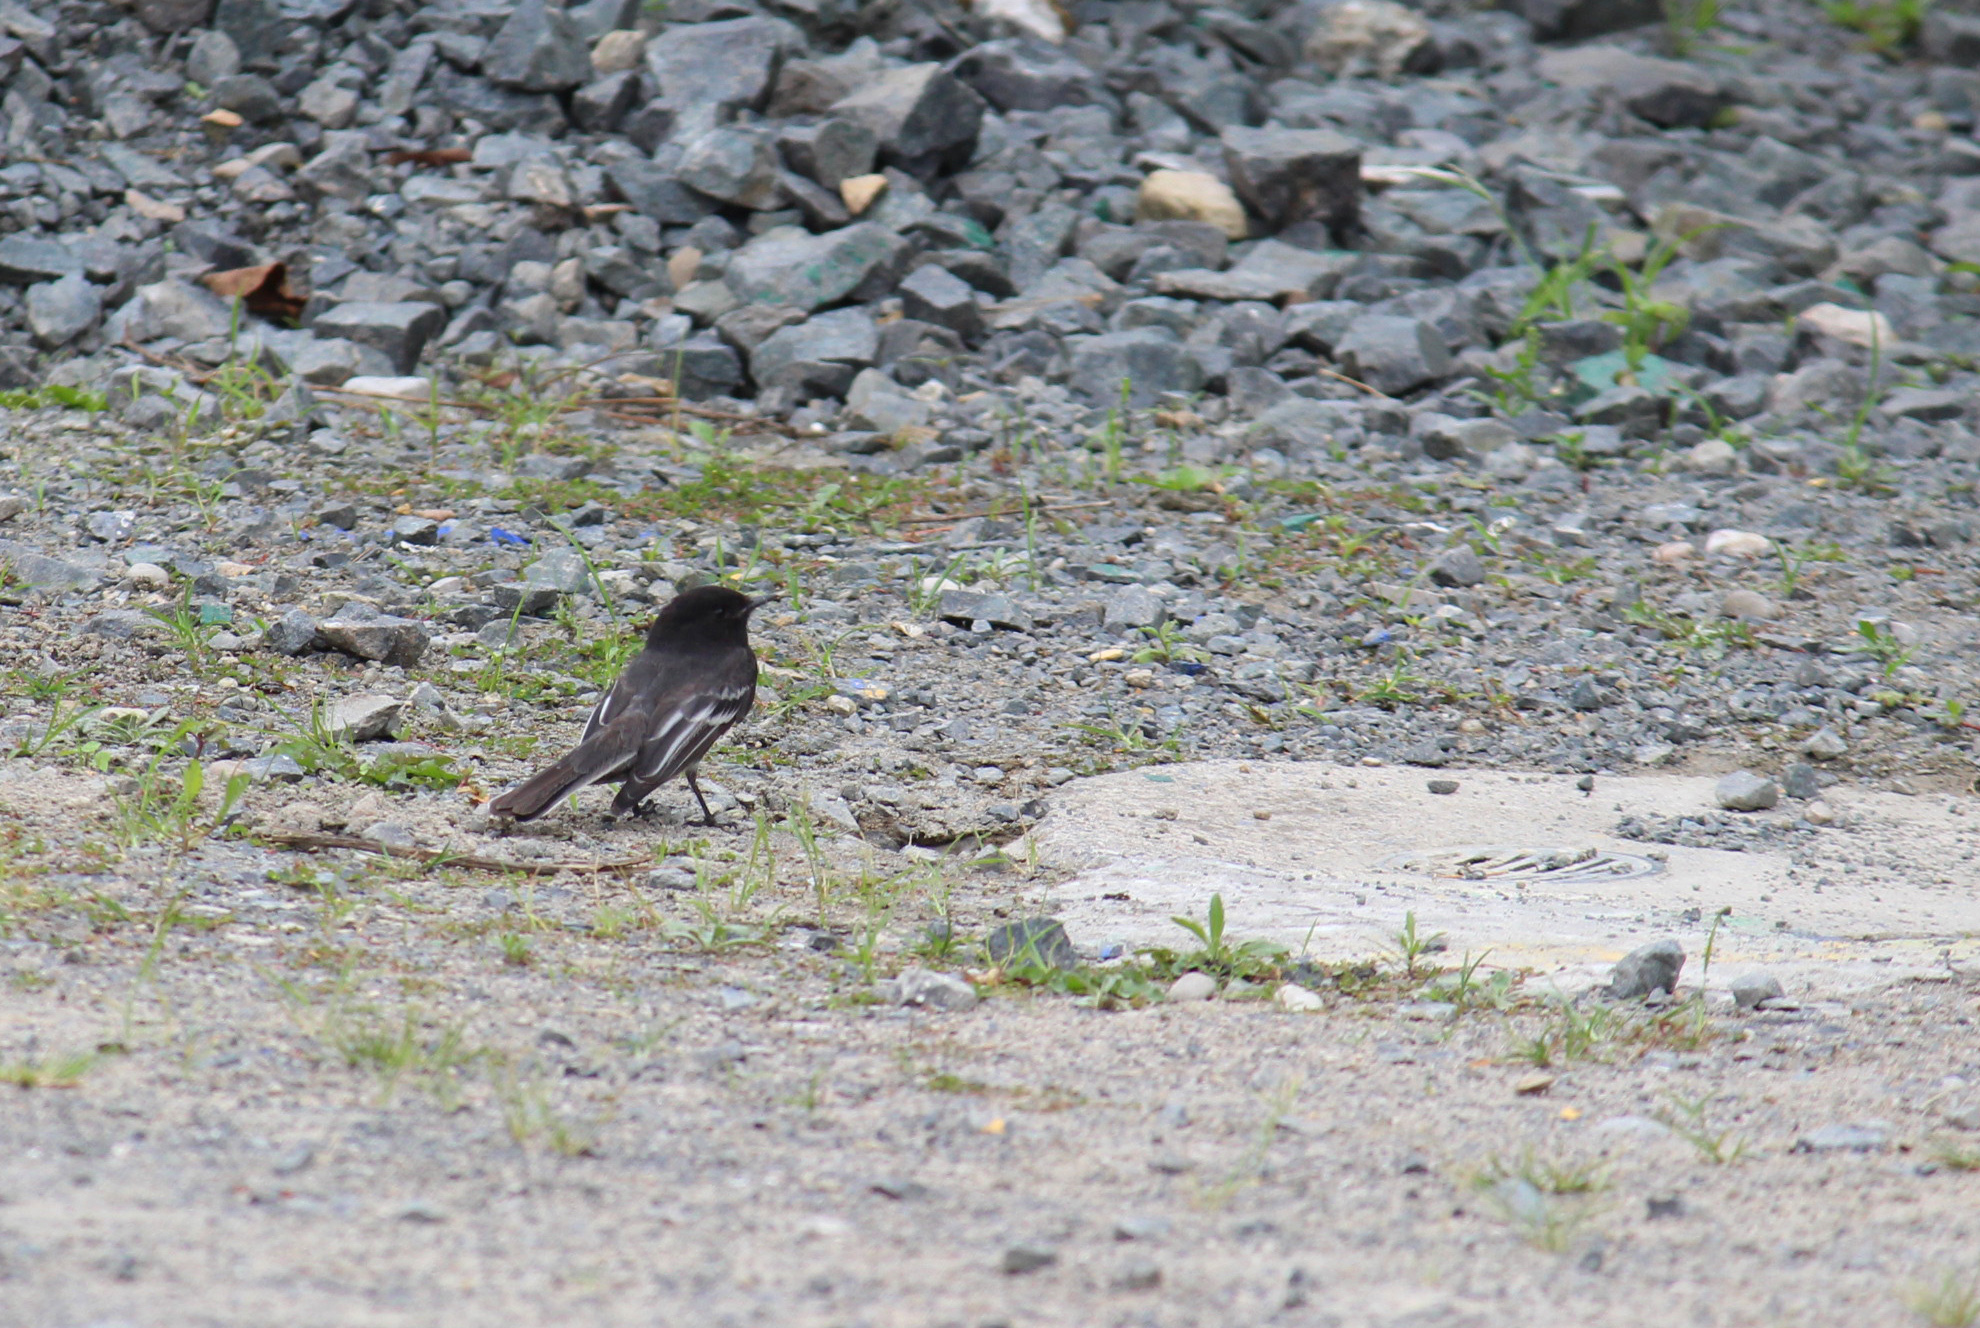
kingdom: Animalia
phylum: Chordata
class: Aves
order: Passeriformes
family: Tyrannidae
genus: Sayornis
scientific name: Sayornis nigricans
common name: Black phoebe
